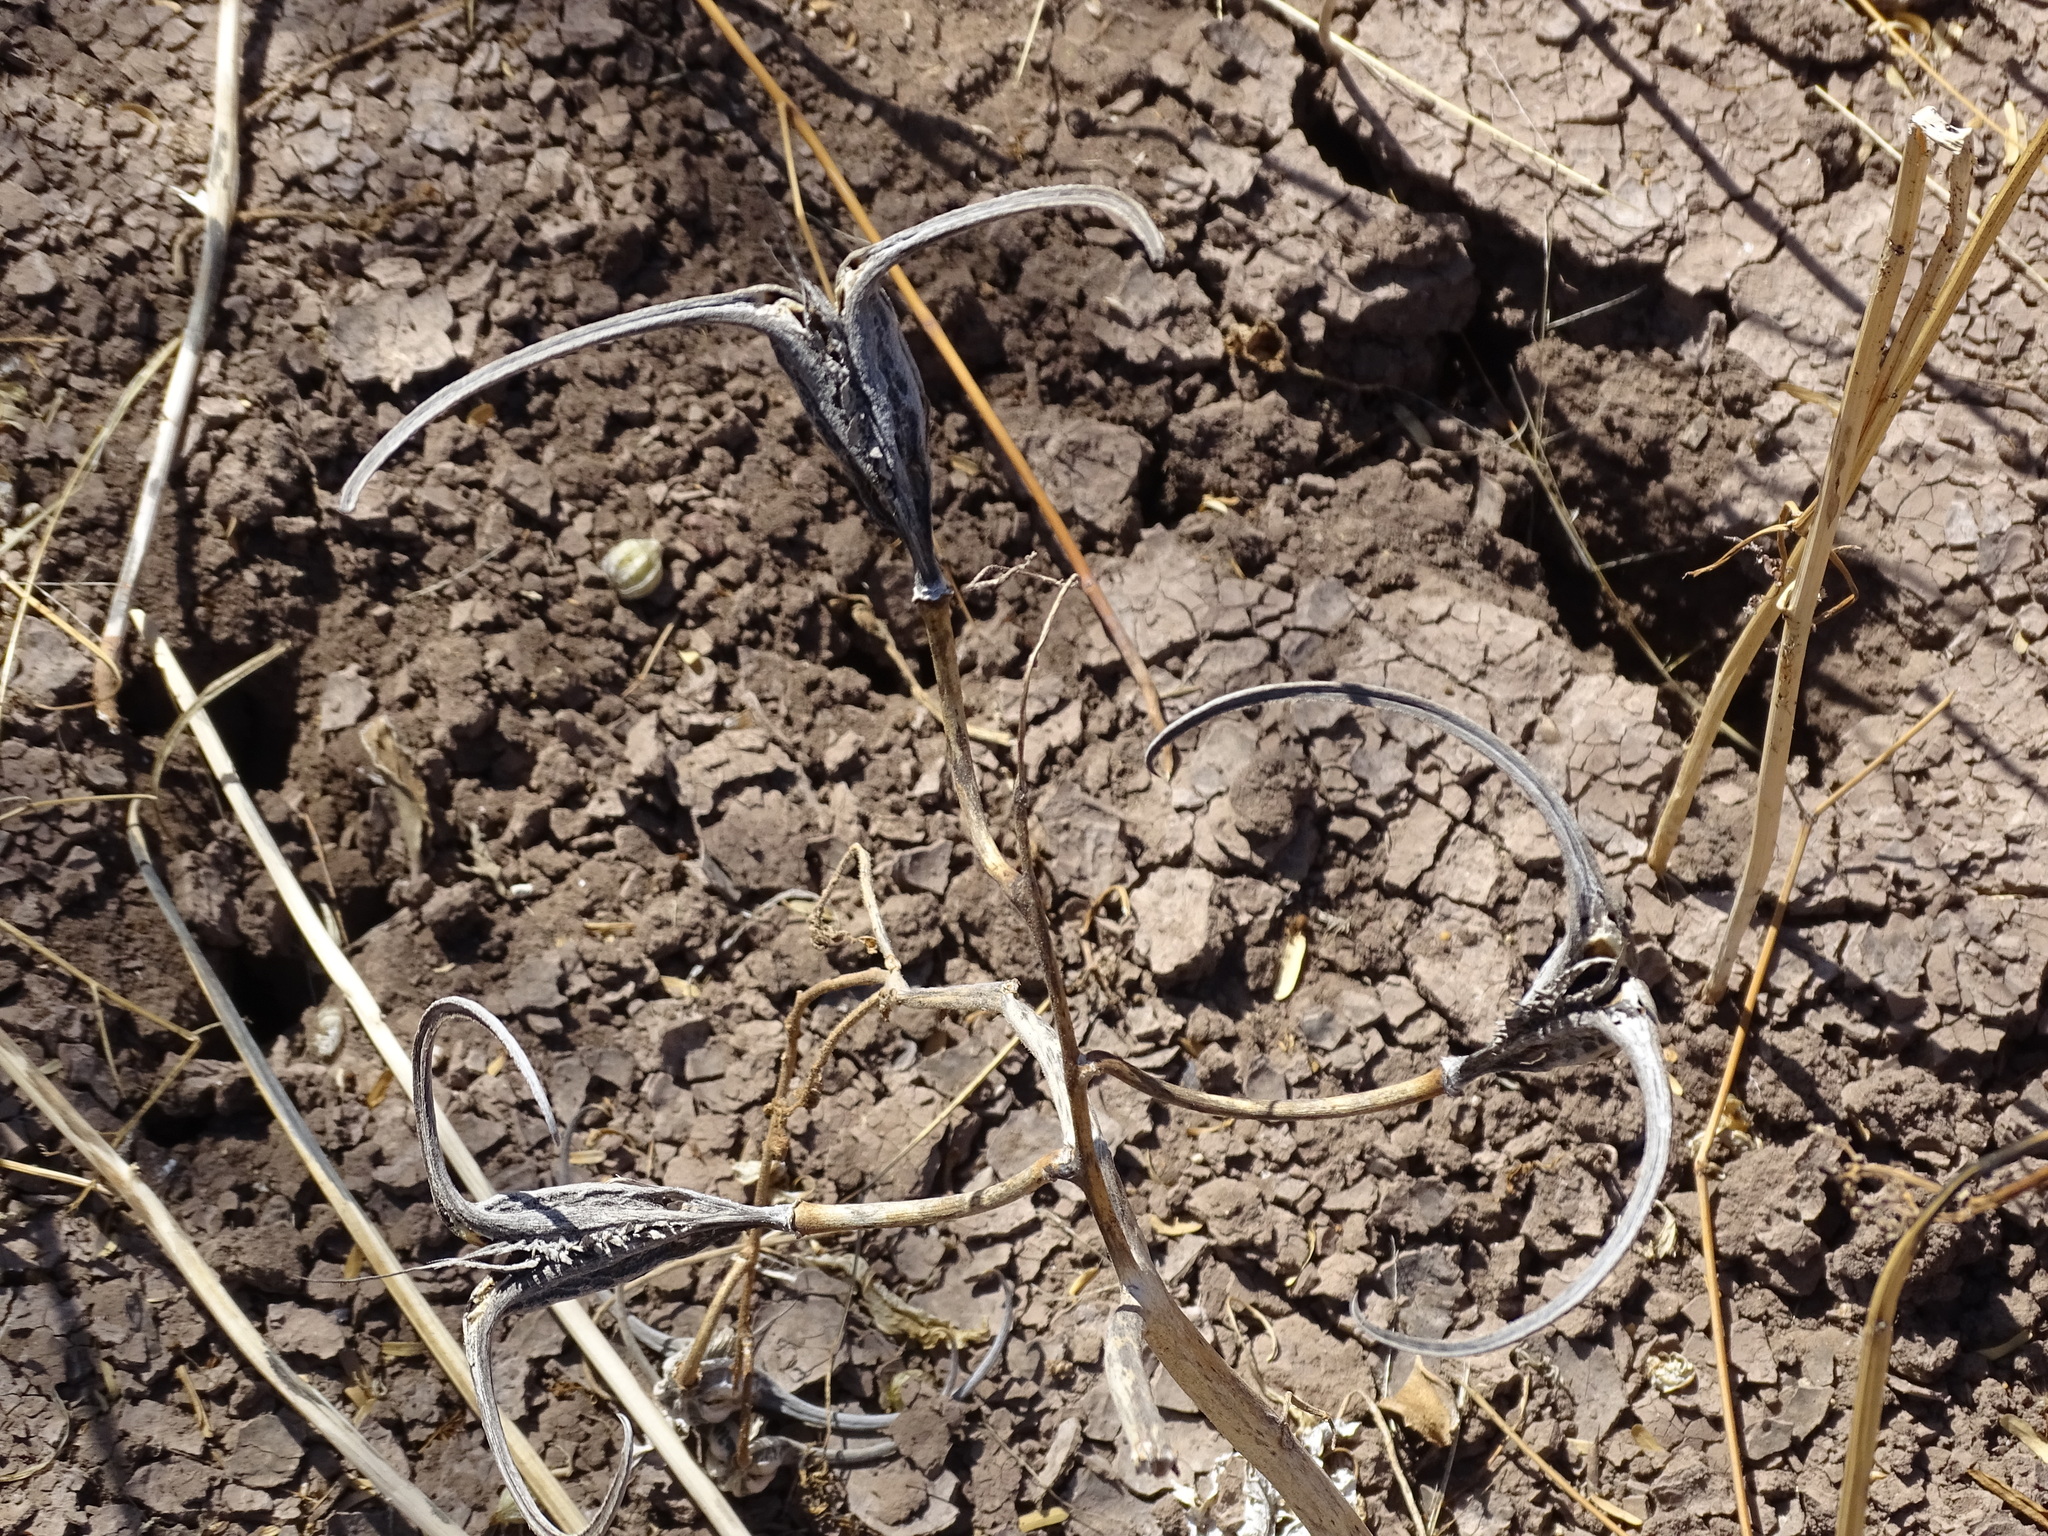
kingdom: Plantae
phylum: Tracheophyta
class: Magnoliopsida
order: Lamiales
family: Martyniaceae
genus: Proboscidea
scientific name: Proboscidea parviflora
